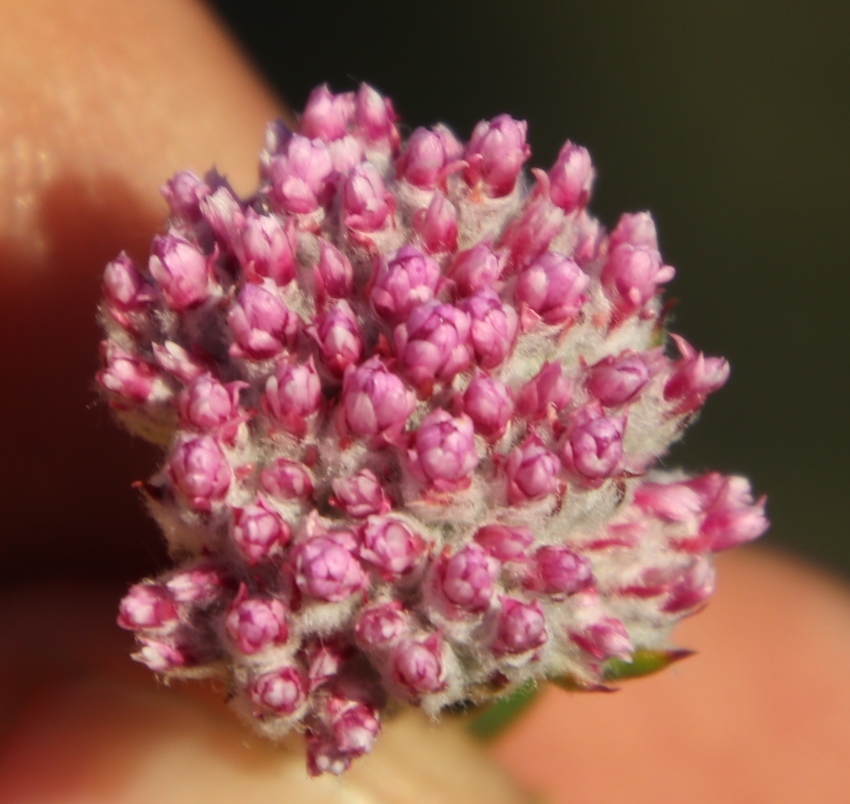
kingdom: Plantae
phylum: Tracheophyta
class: Magnoliopsida
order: Asterales
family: Asteraceae
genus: Metalasia
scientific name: Metalasia cymbifolia
